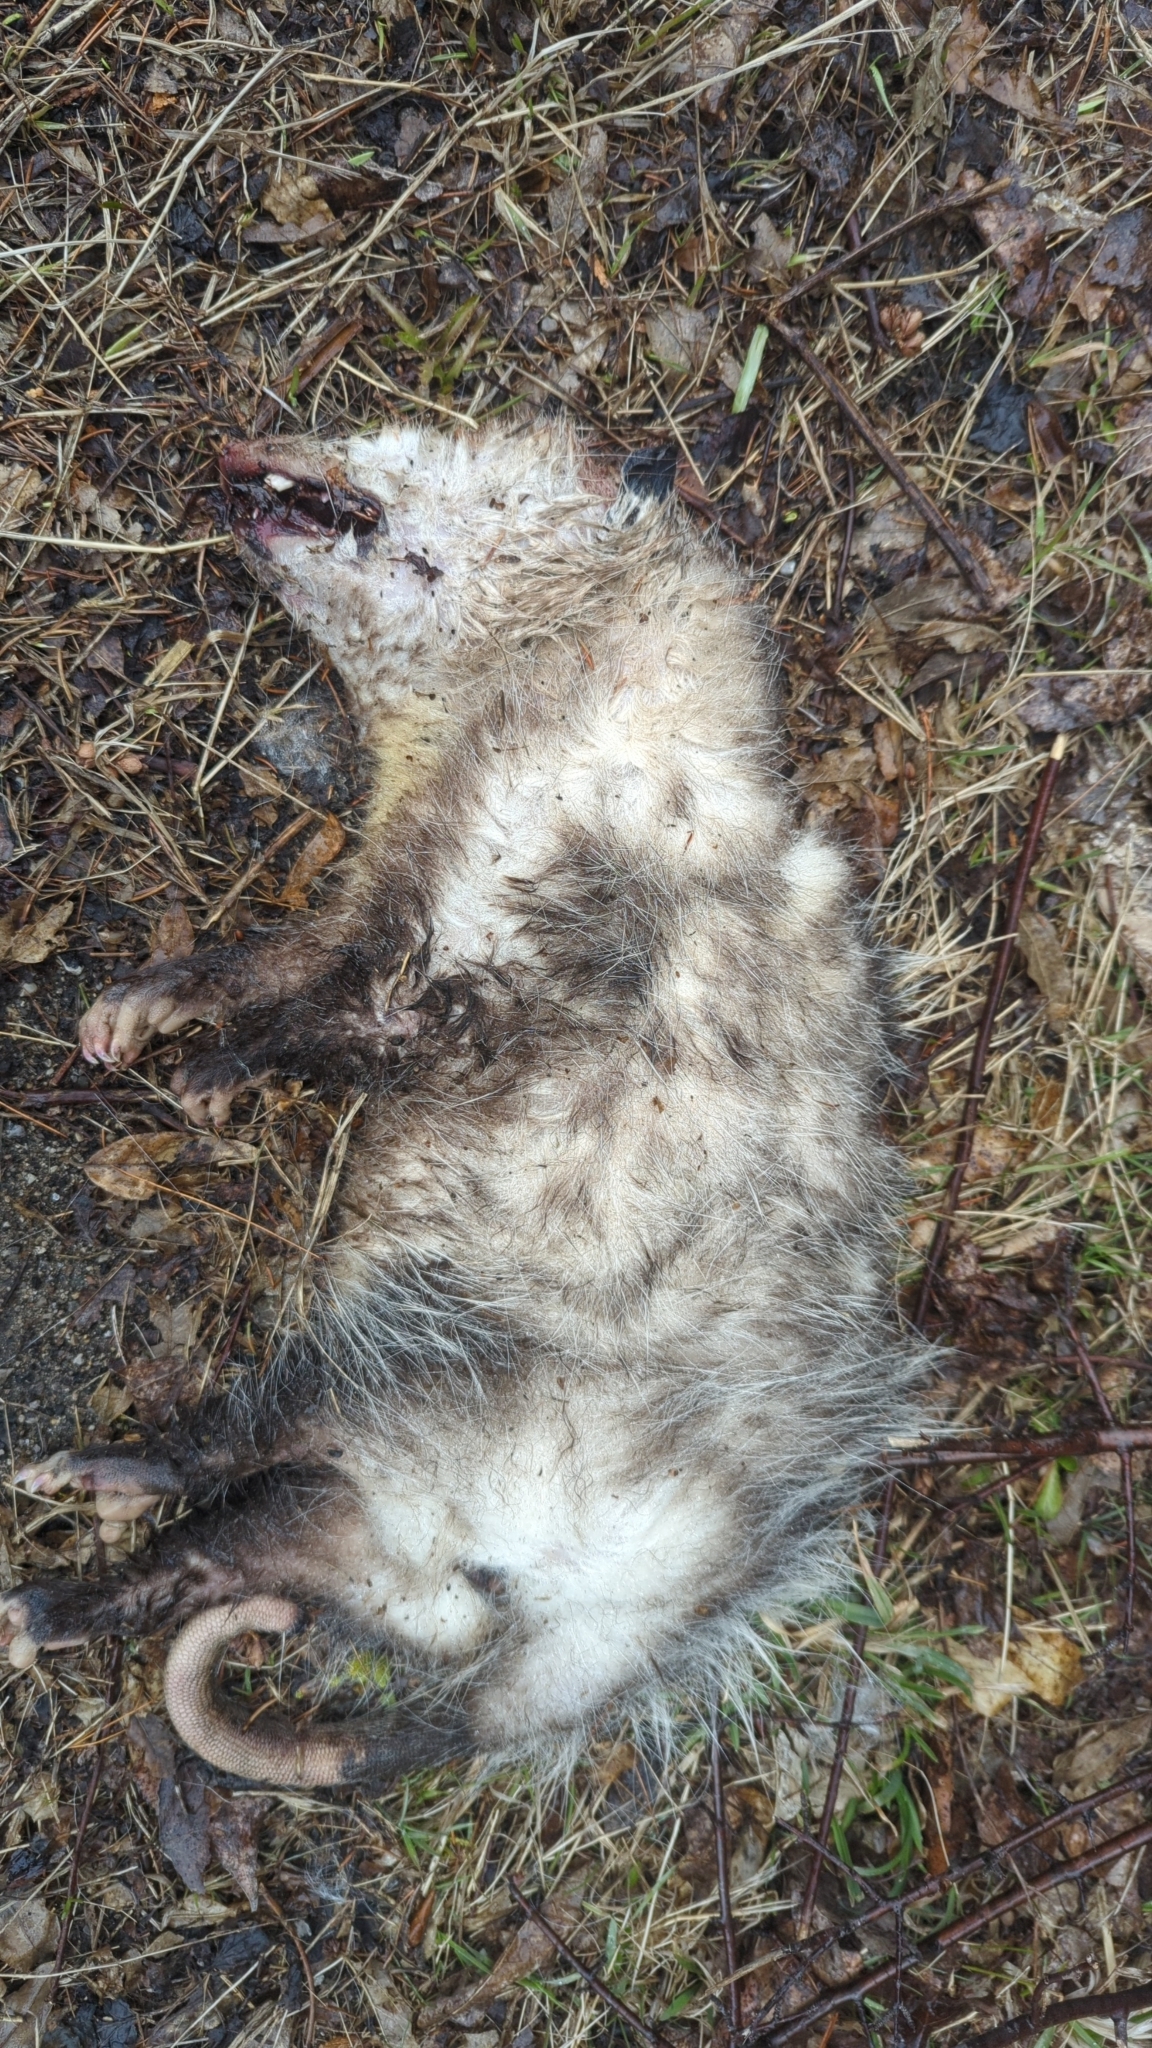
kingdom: Animalia
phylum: Chordata
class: Mammalia
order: Didelphimorphia
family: Didelphidae
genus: Didelphis
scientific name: Didelphis virginiana
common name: Virginia opossum
